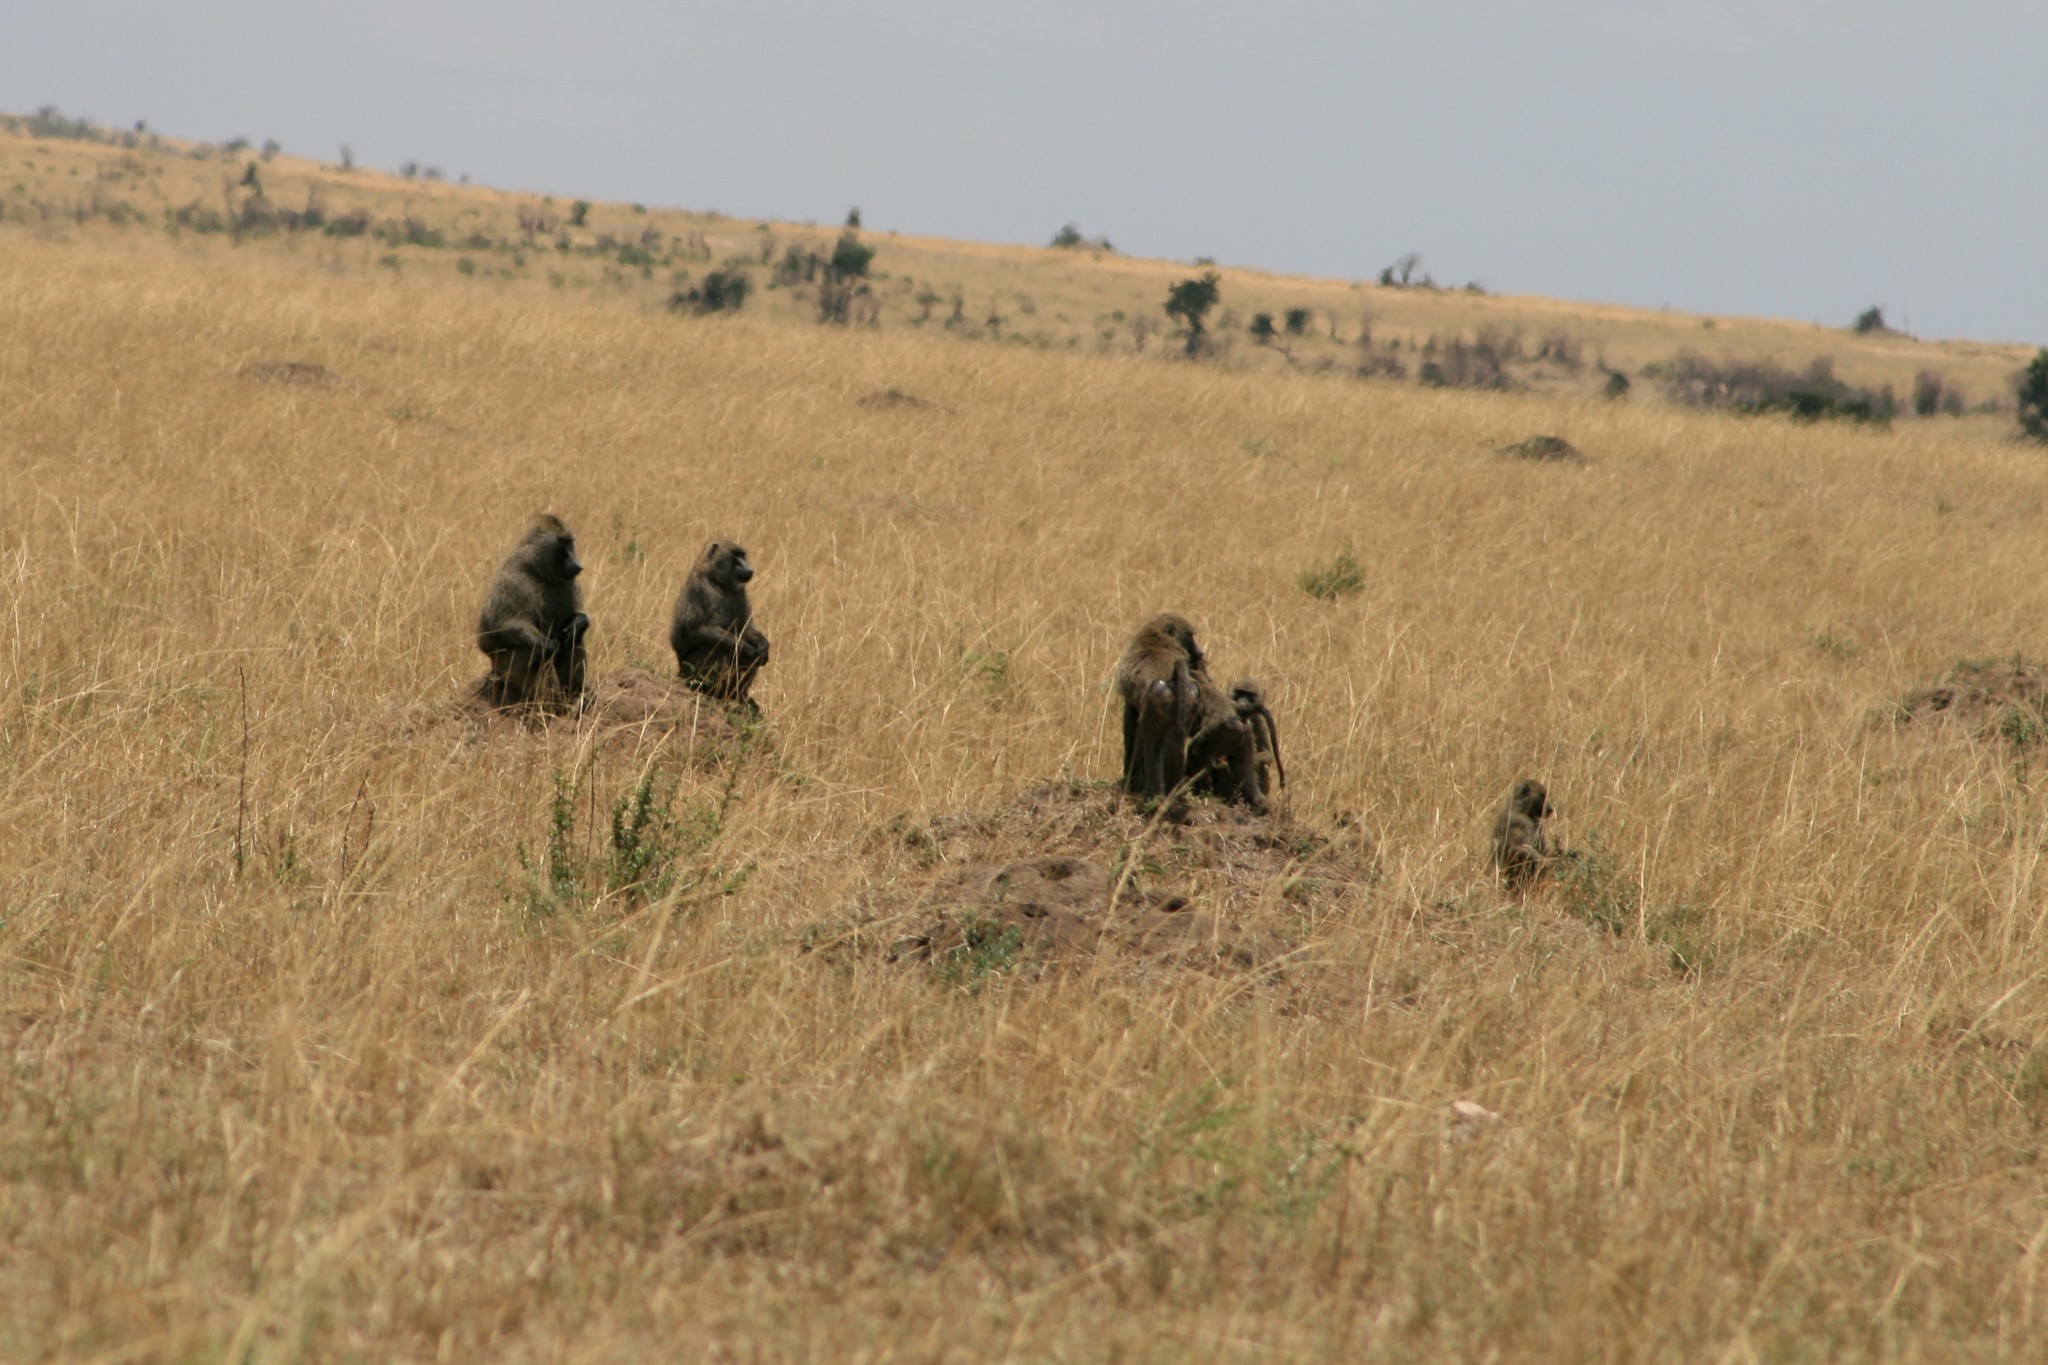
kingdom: Animalia
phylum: Chordata
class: Mammalia
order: Primates
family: Cercopithecidae
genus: Papio
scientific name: Papio anubis
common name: Olive baboon
